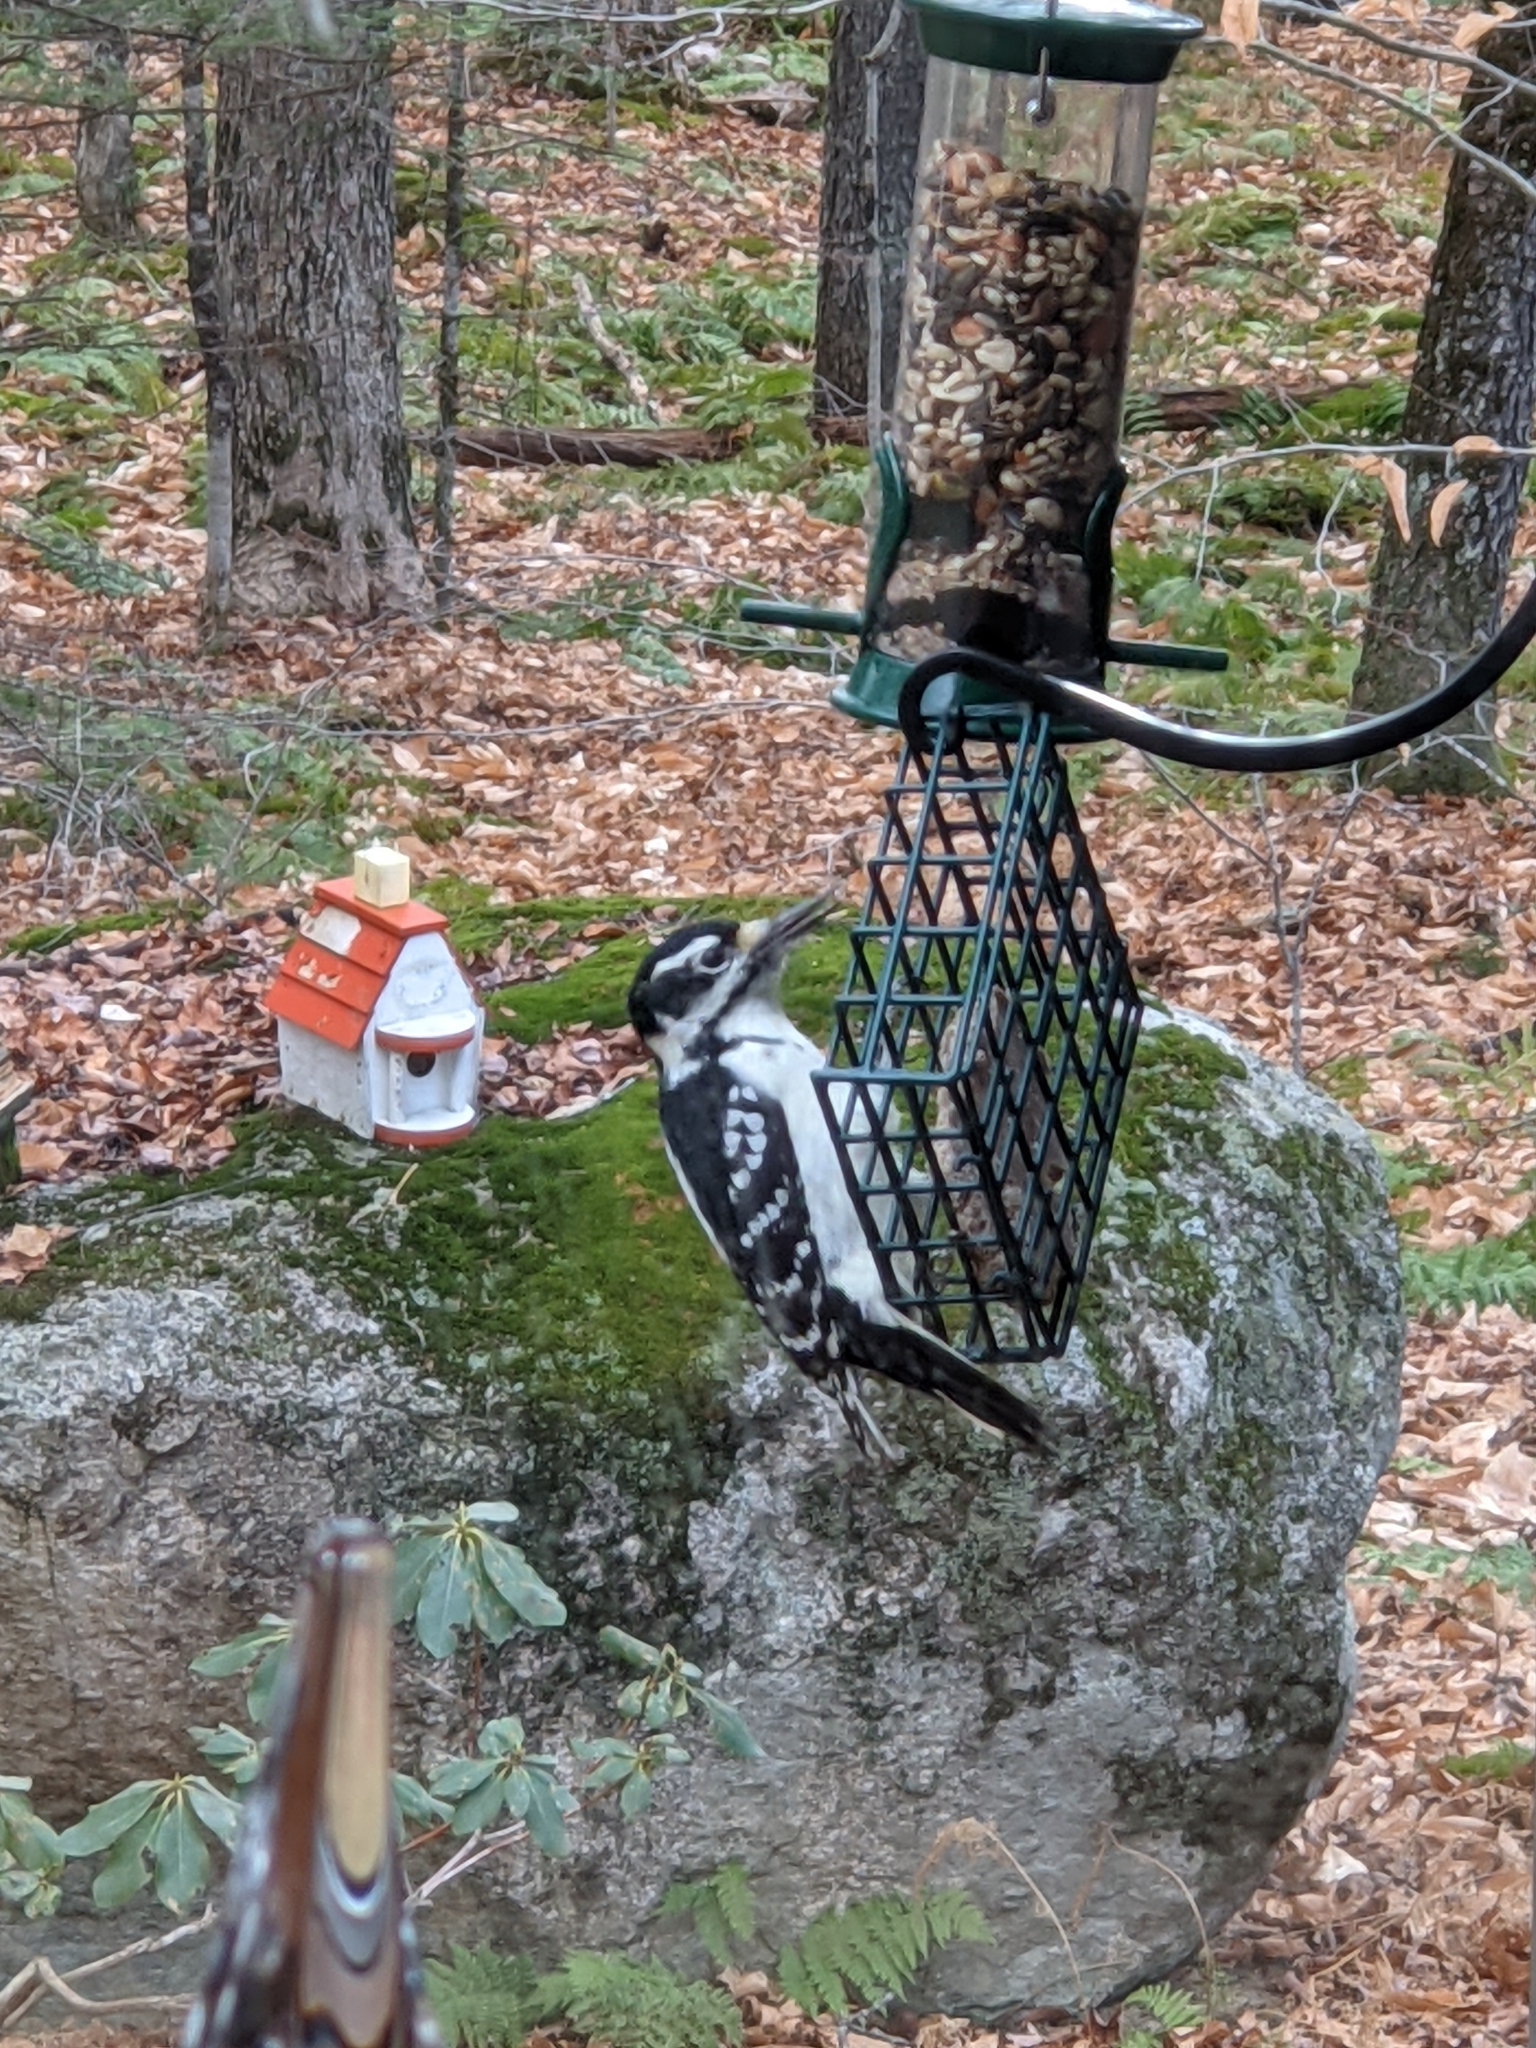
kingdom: Animalia
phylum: Chordata
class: Aves
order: Piciformes
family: Picidae
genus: Leuconotopicus
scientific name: Leuconotopicus villosus
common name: Hairy woodpecker
